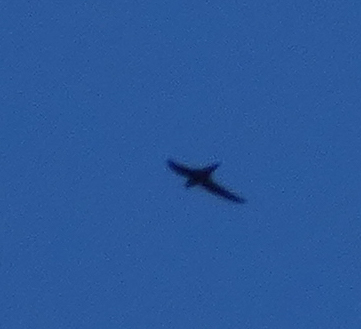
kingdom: Animalia
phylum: Chordata
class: Aves
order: Apodiformes
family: Apodidae
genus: Chaetura
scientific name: Chaetura pelagica
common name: Chimney swift
